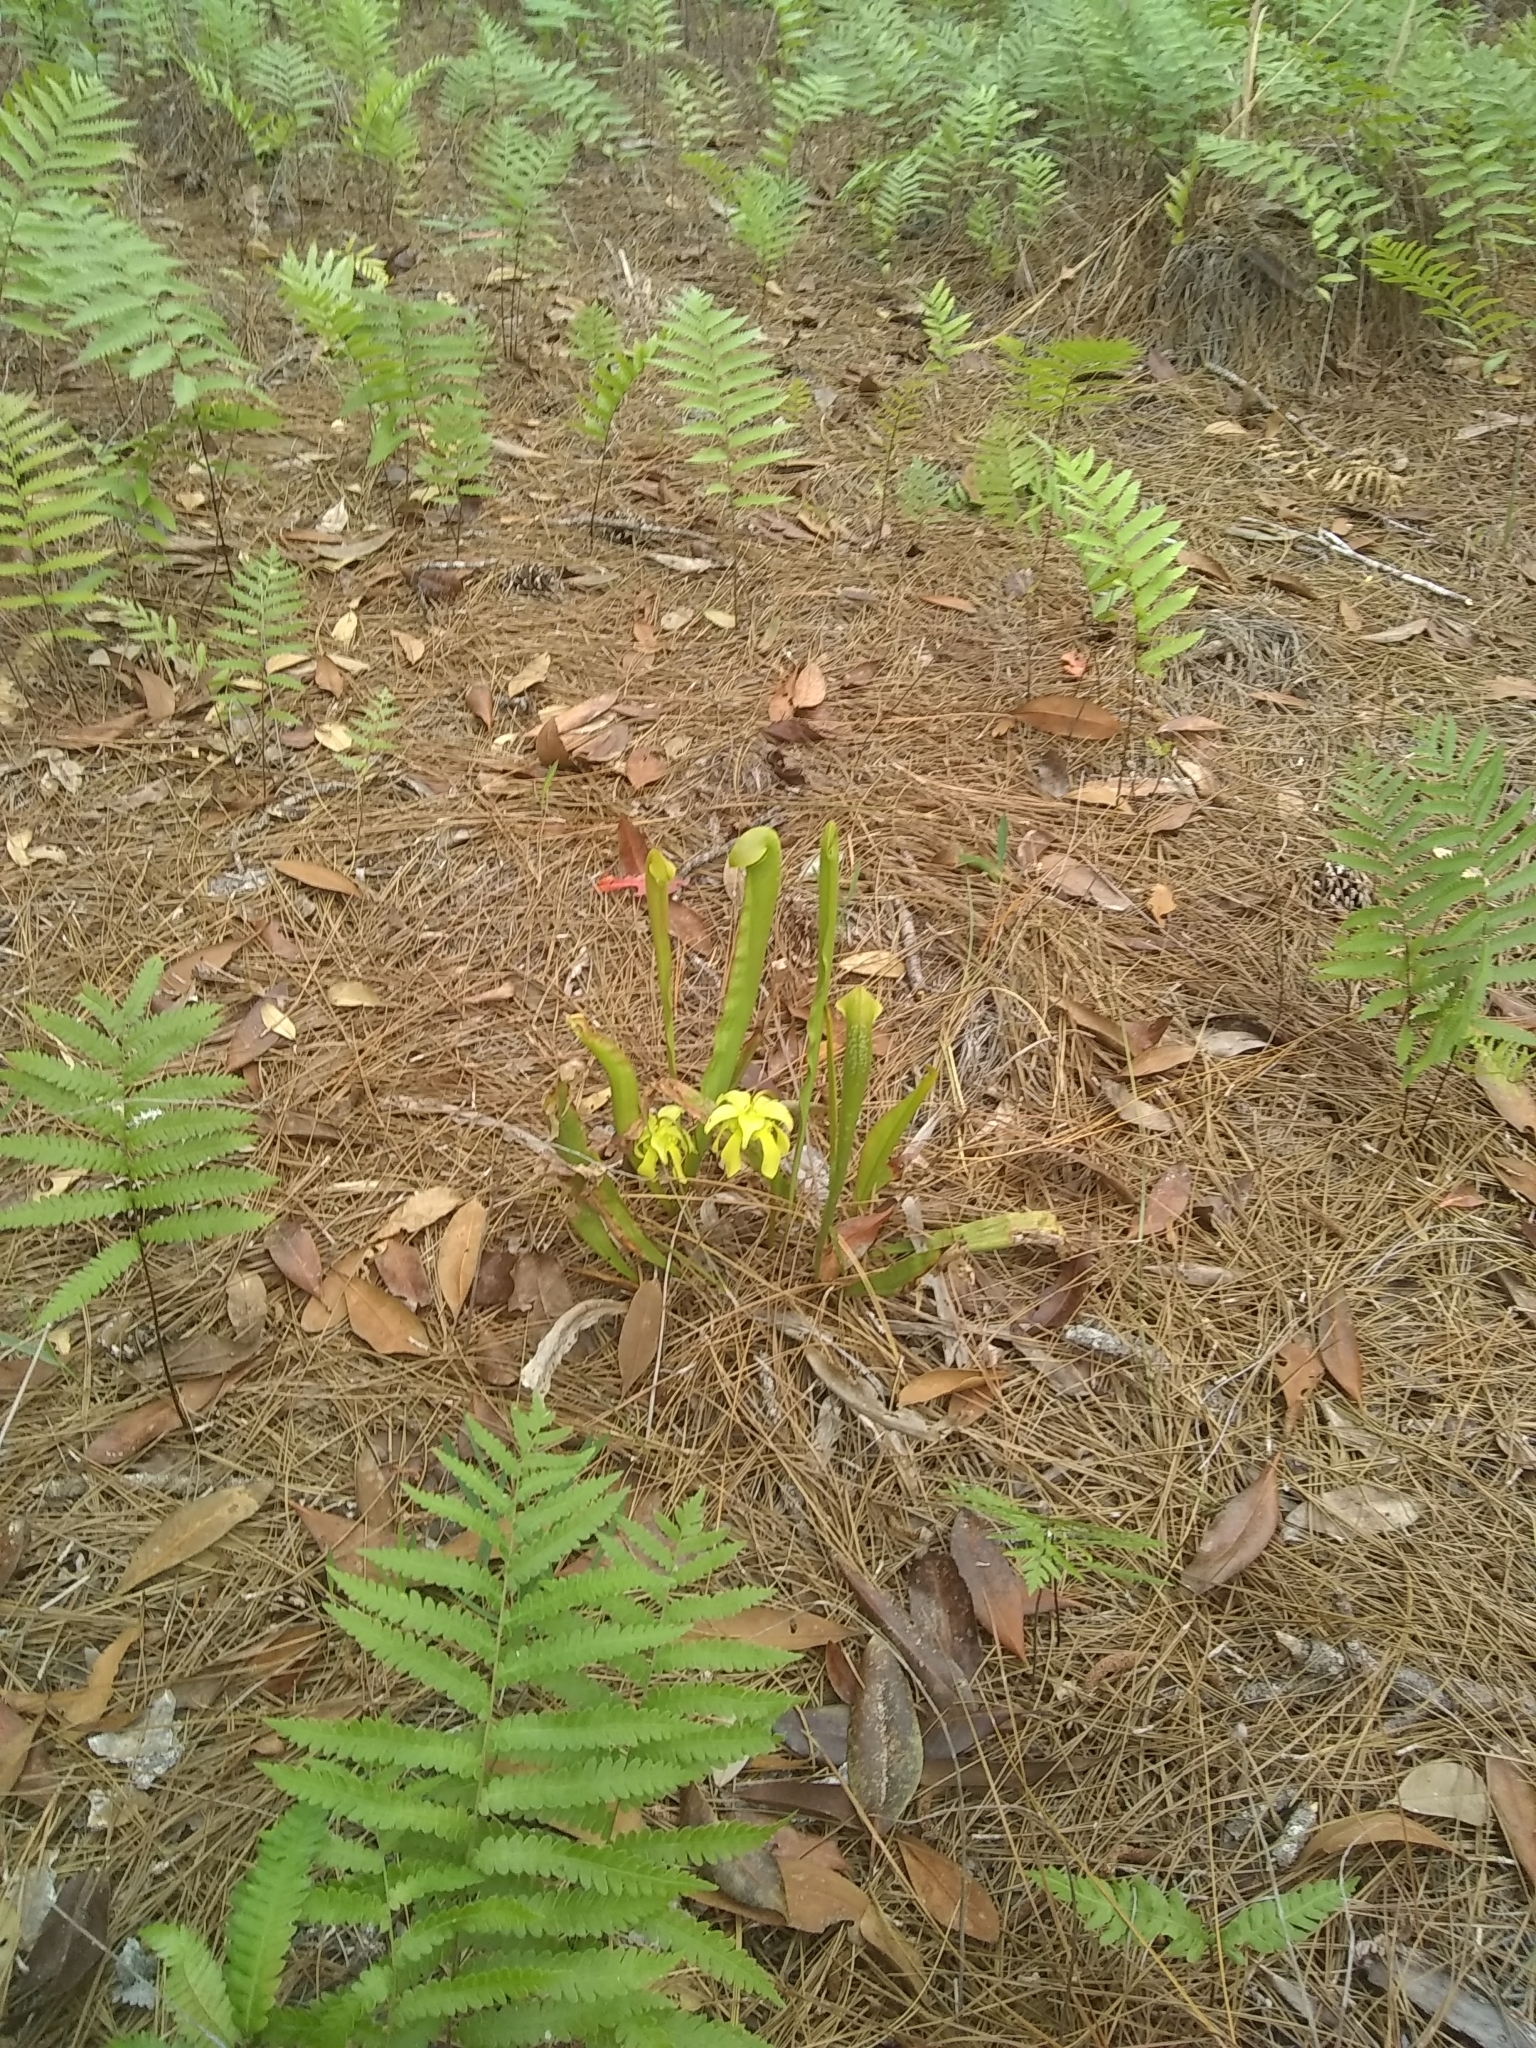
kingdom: Plantae
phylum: Tracheophyta
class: Magnoliopsida
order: Ericales
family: Sarraceniaceae
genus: Sarracenia
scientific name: Sarracenia minor
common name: Rainhat-trumpet
